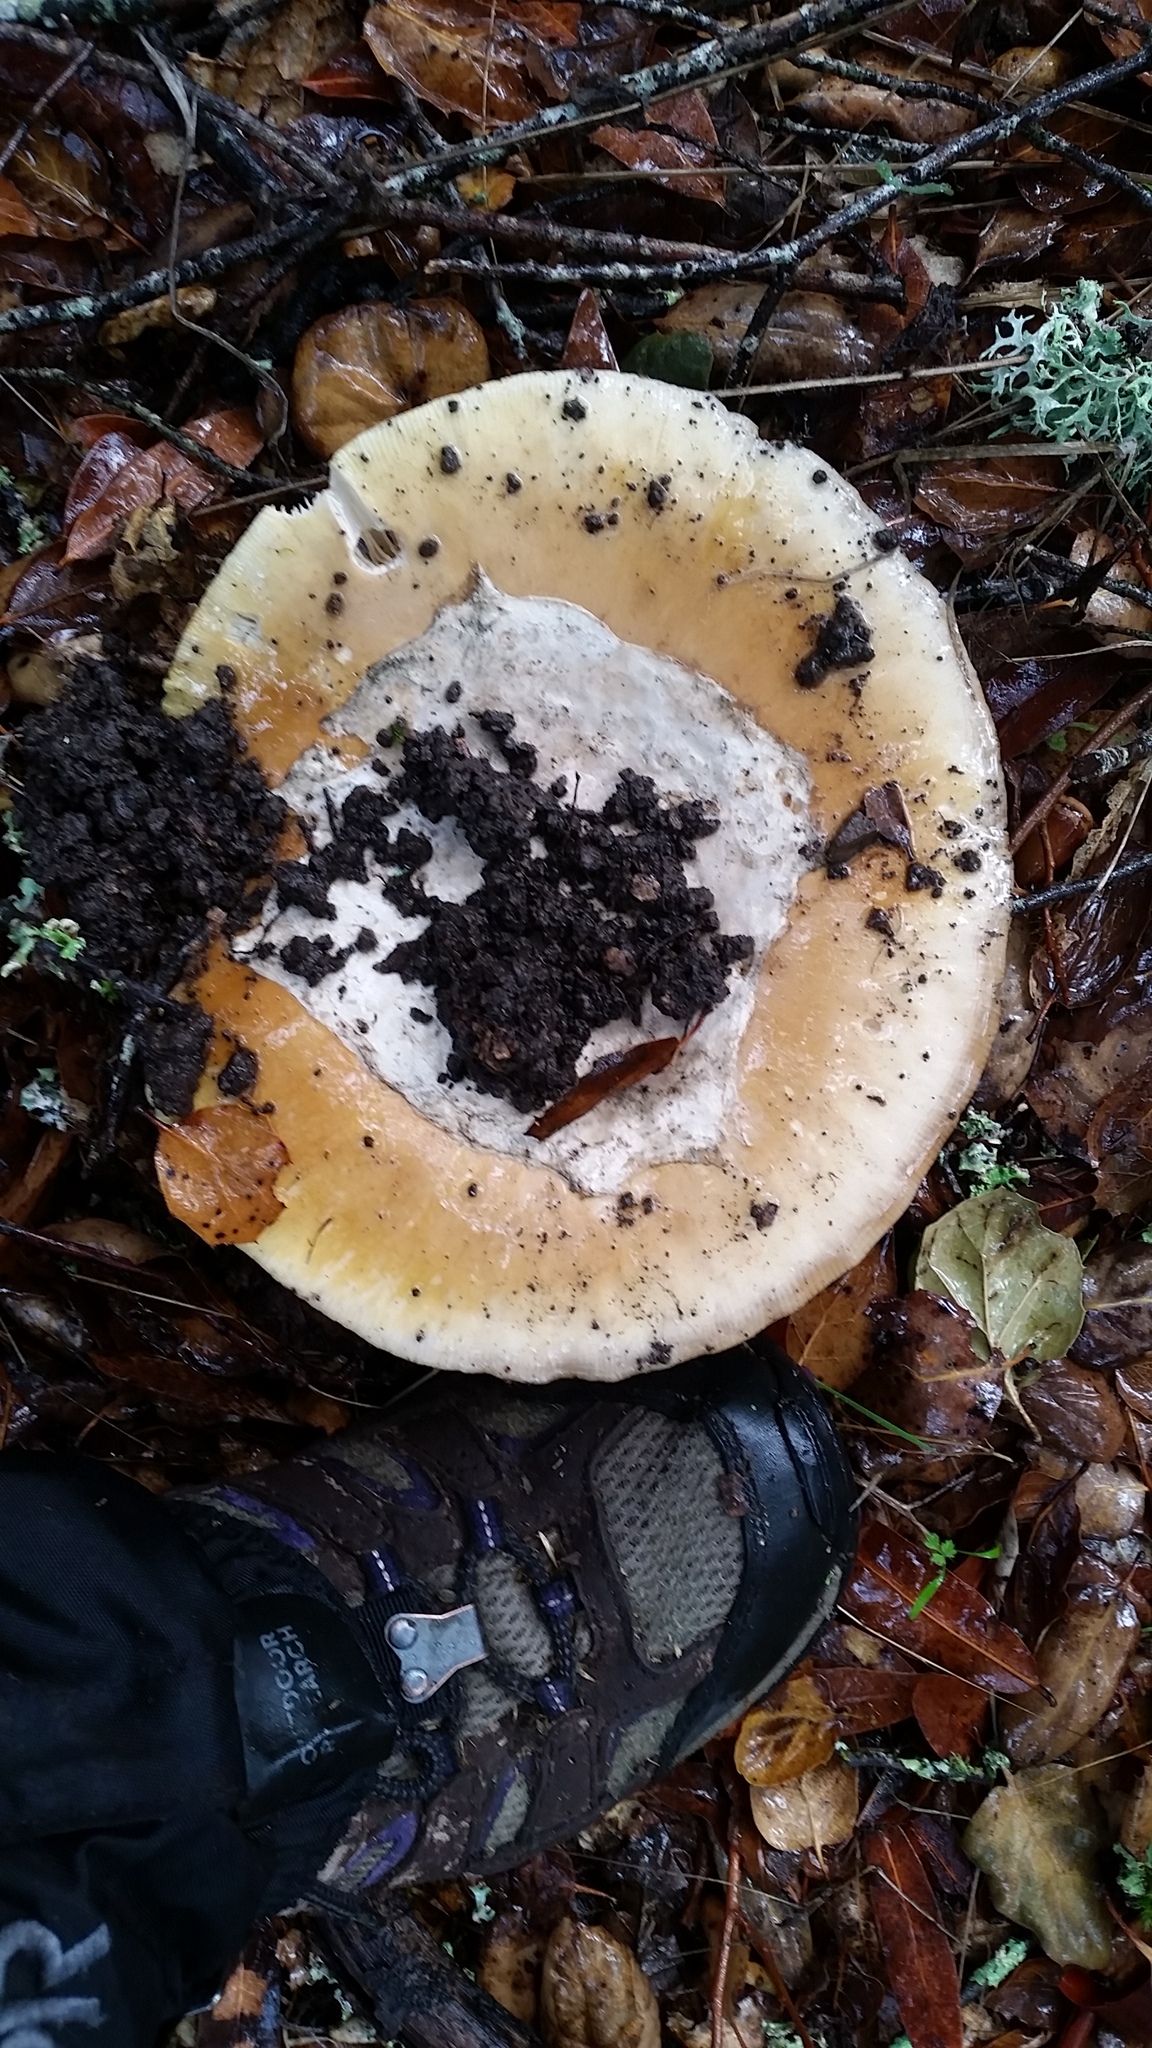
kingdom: Fungi
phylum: Basidiomycota
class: Agaricomycetes
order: Agaricales
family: Amanitaceae
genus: Amanita
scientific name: Amanita calyptroderma
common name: Coccora
